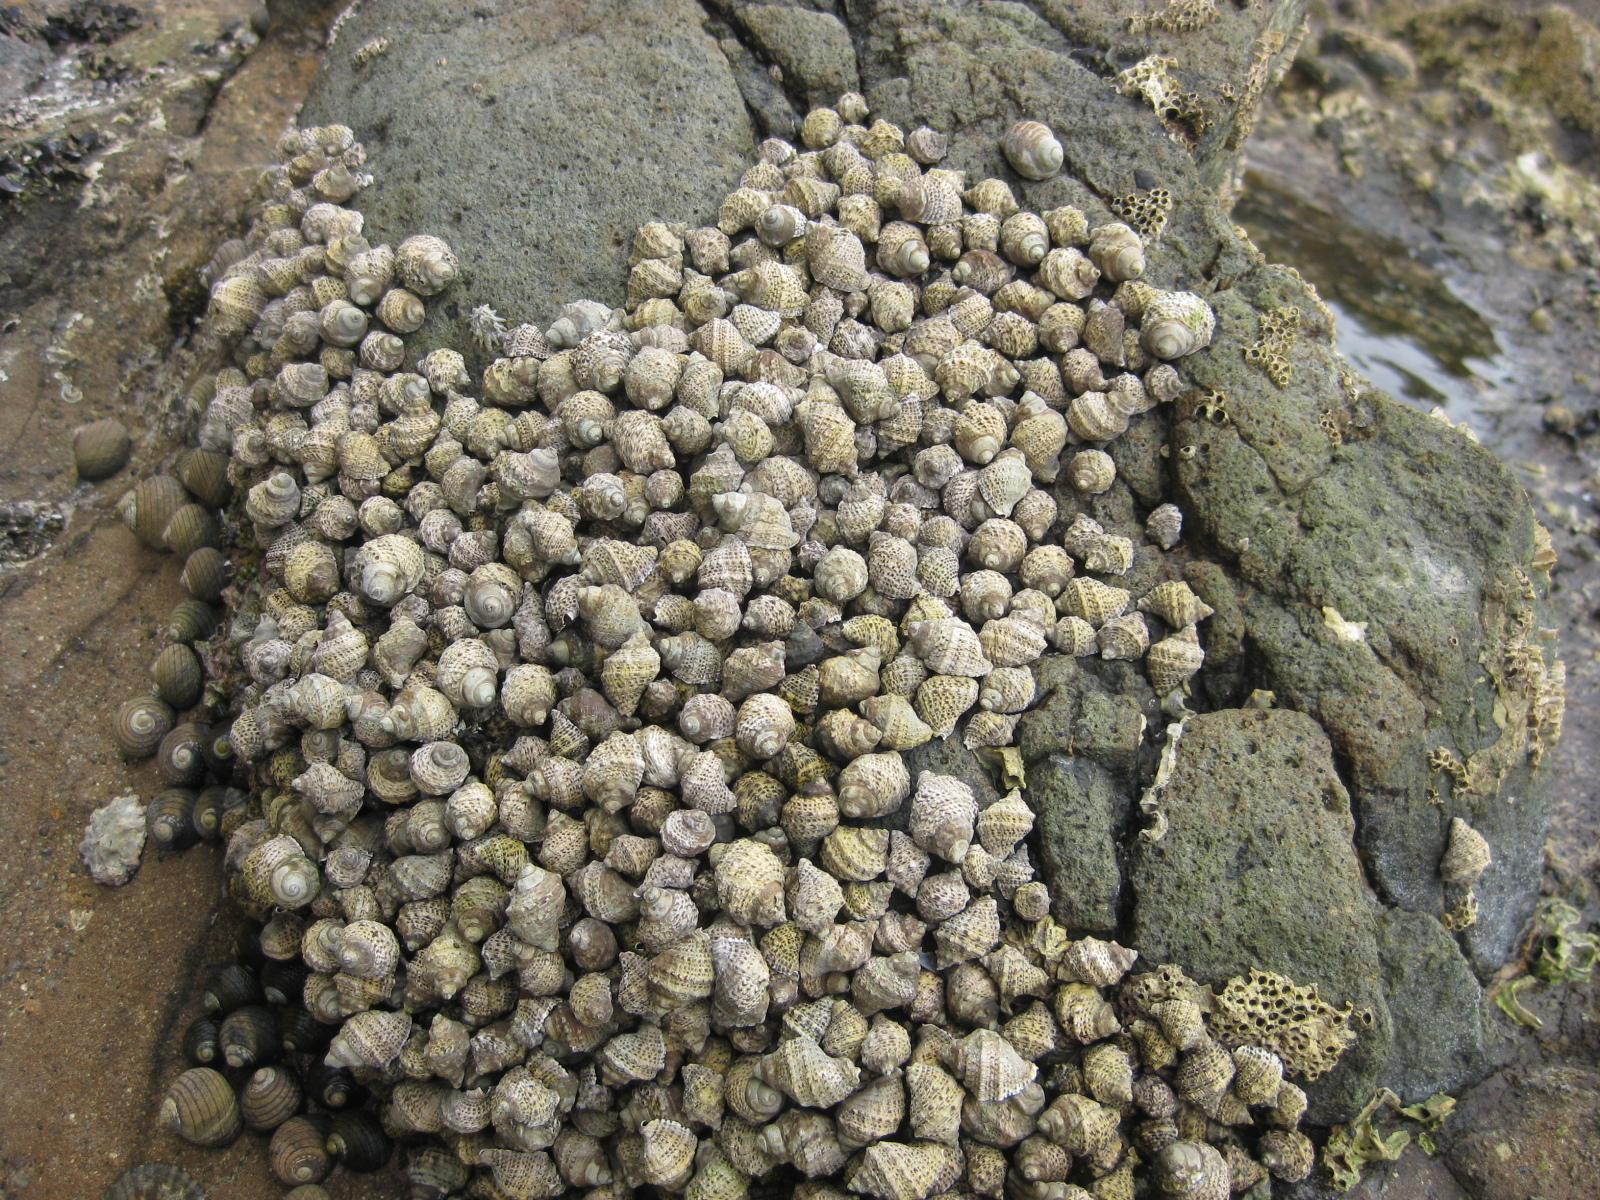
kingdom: Animalia
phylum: Mollusca
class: Gastropoda
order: Neogastropoda
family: Muricidae
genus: Haustrum
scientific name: Haustrum scobina
